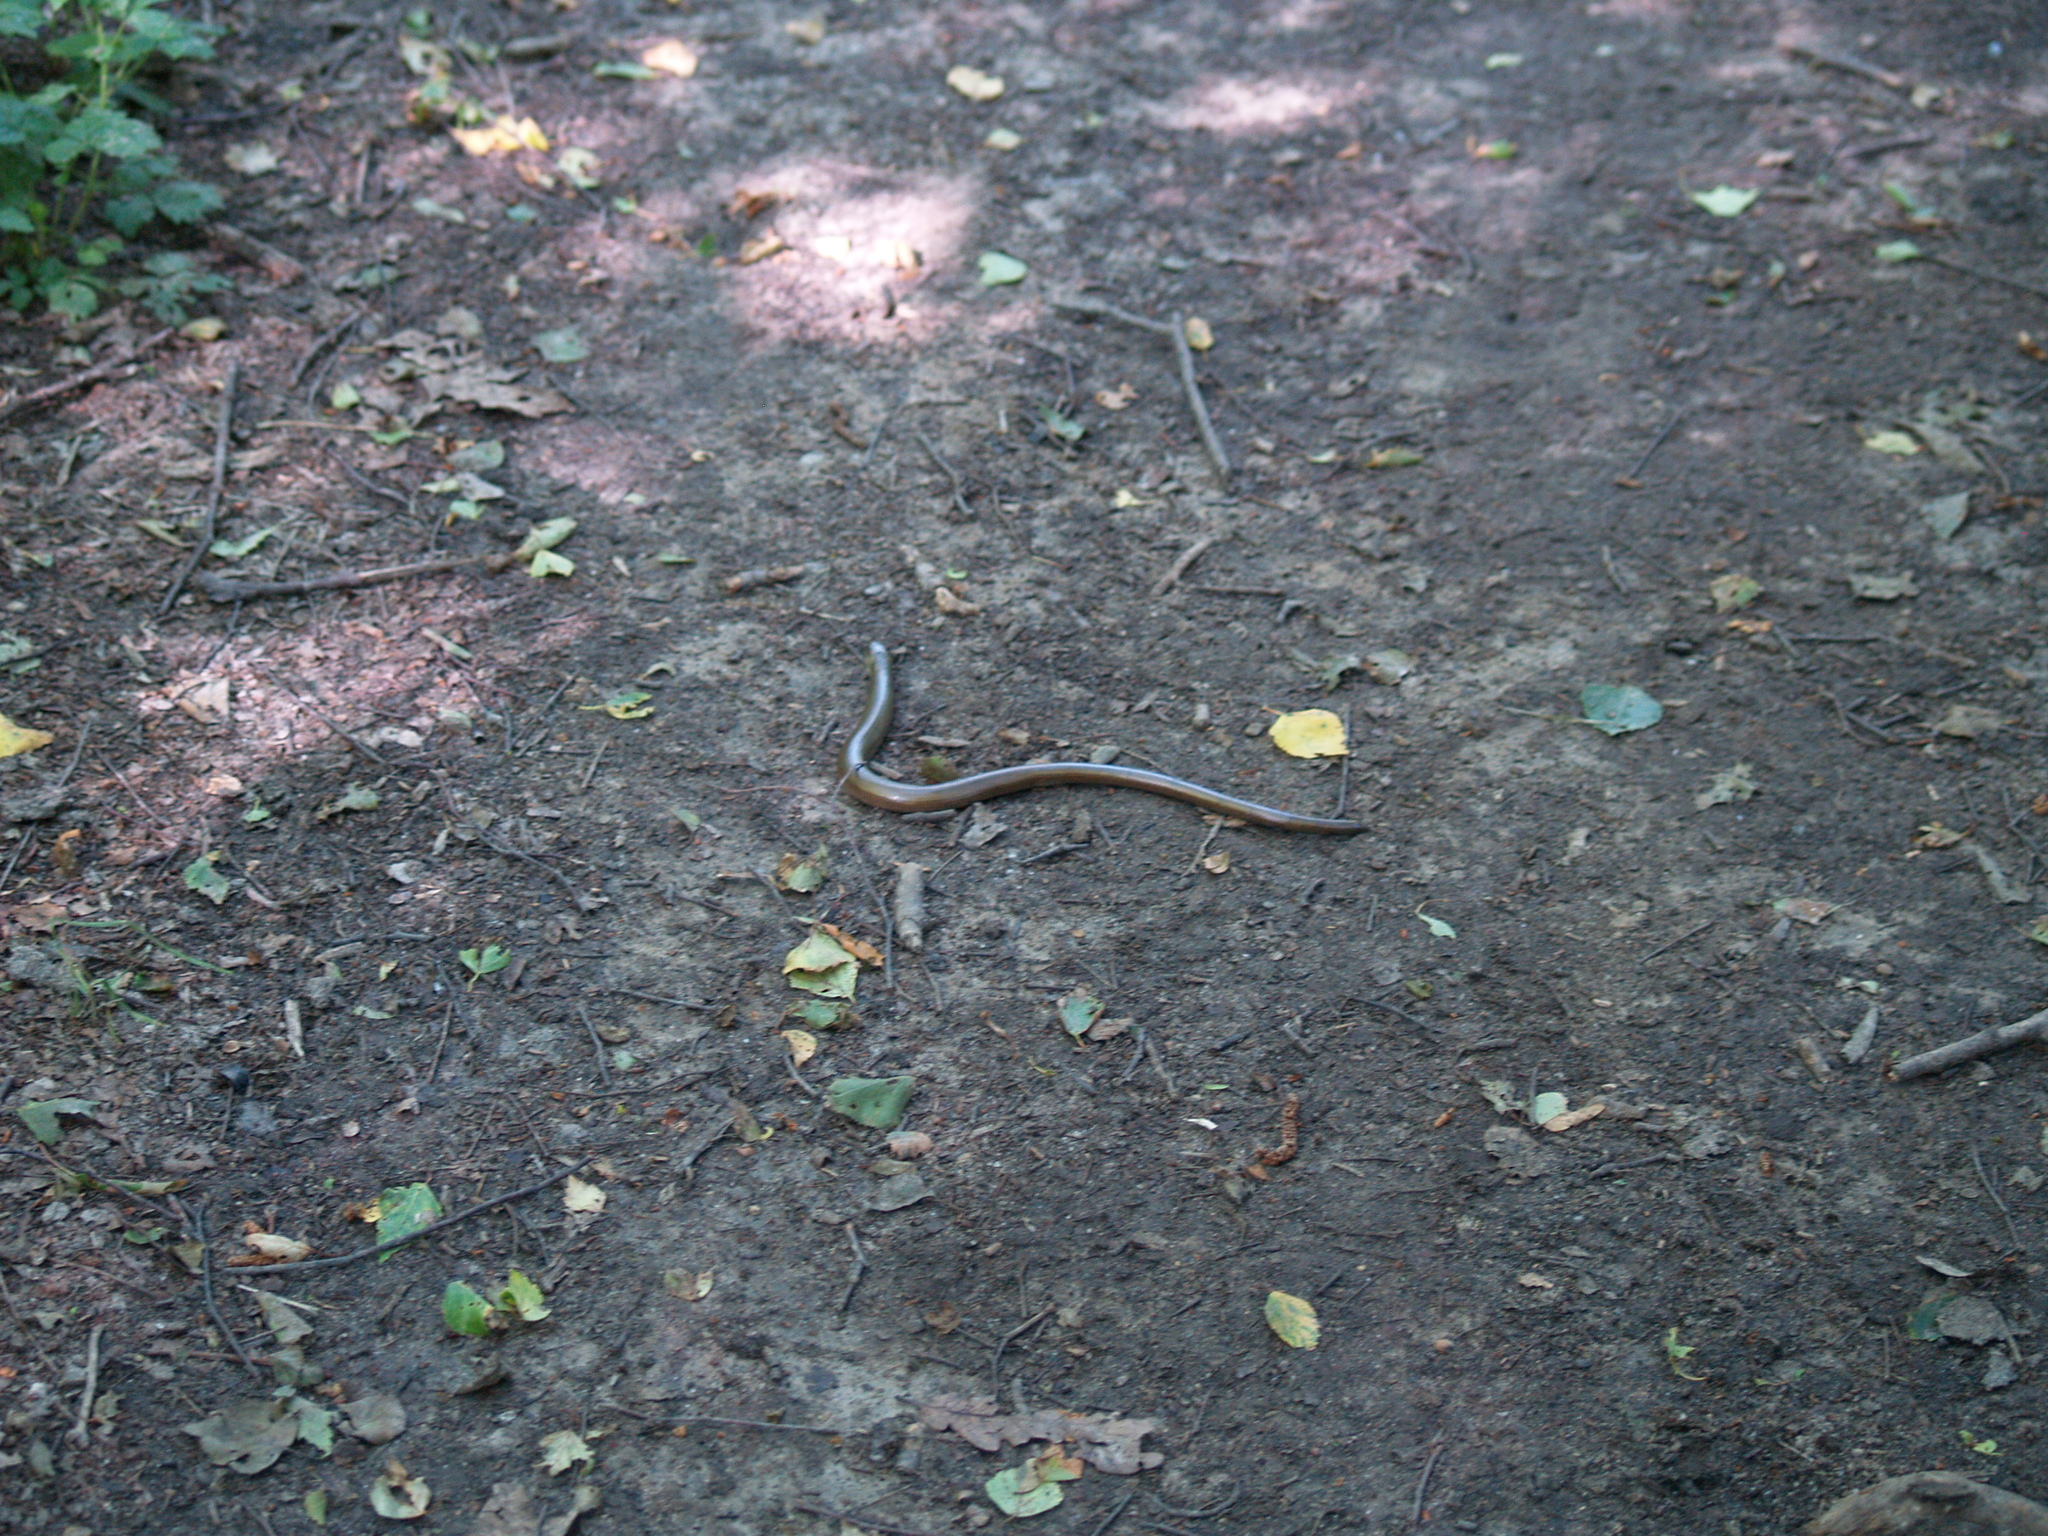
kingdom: Animalia
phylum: Chordata
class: Squamata
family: Anguidae
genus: Anguis
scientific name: Anguis colchica
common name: Slow worm
